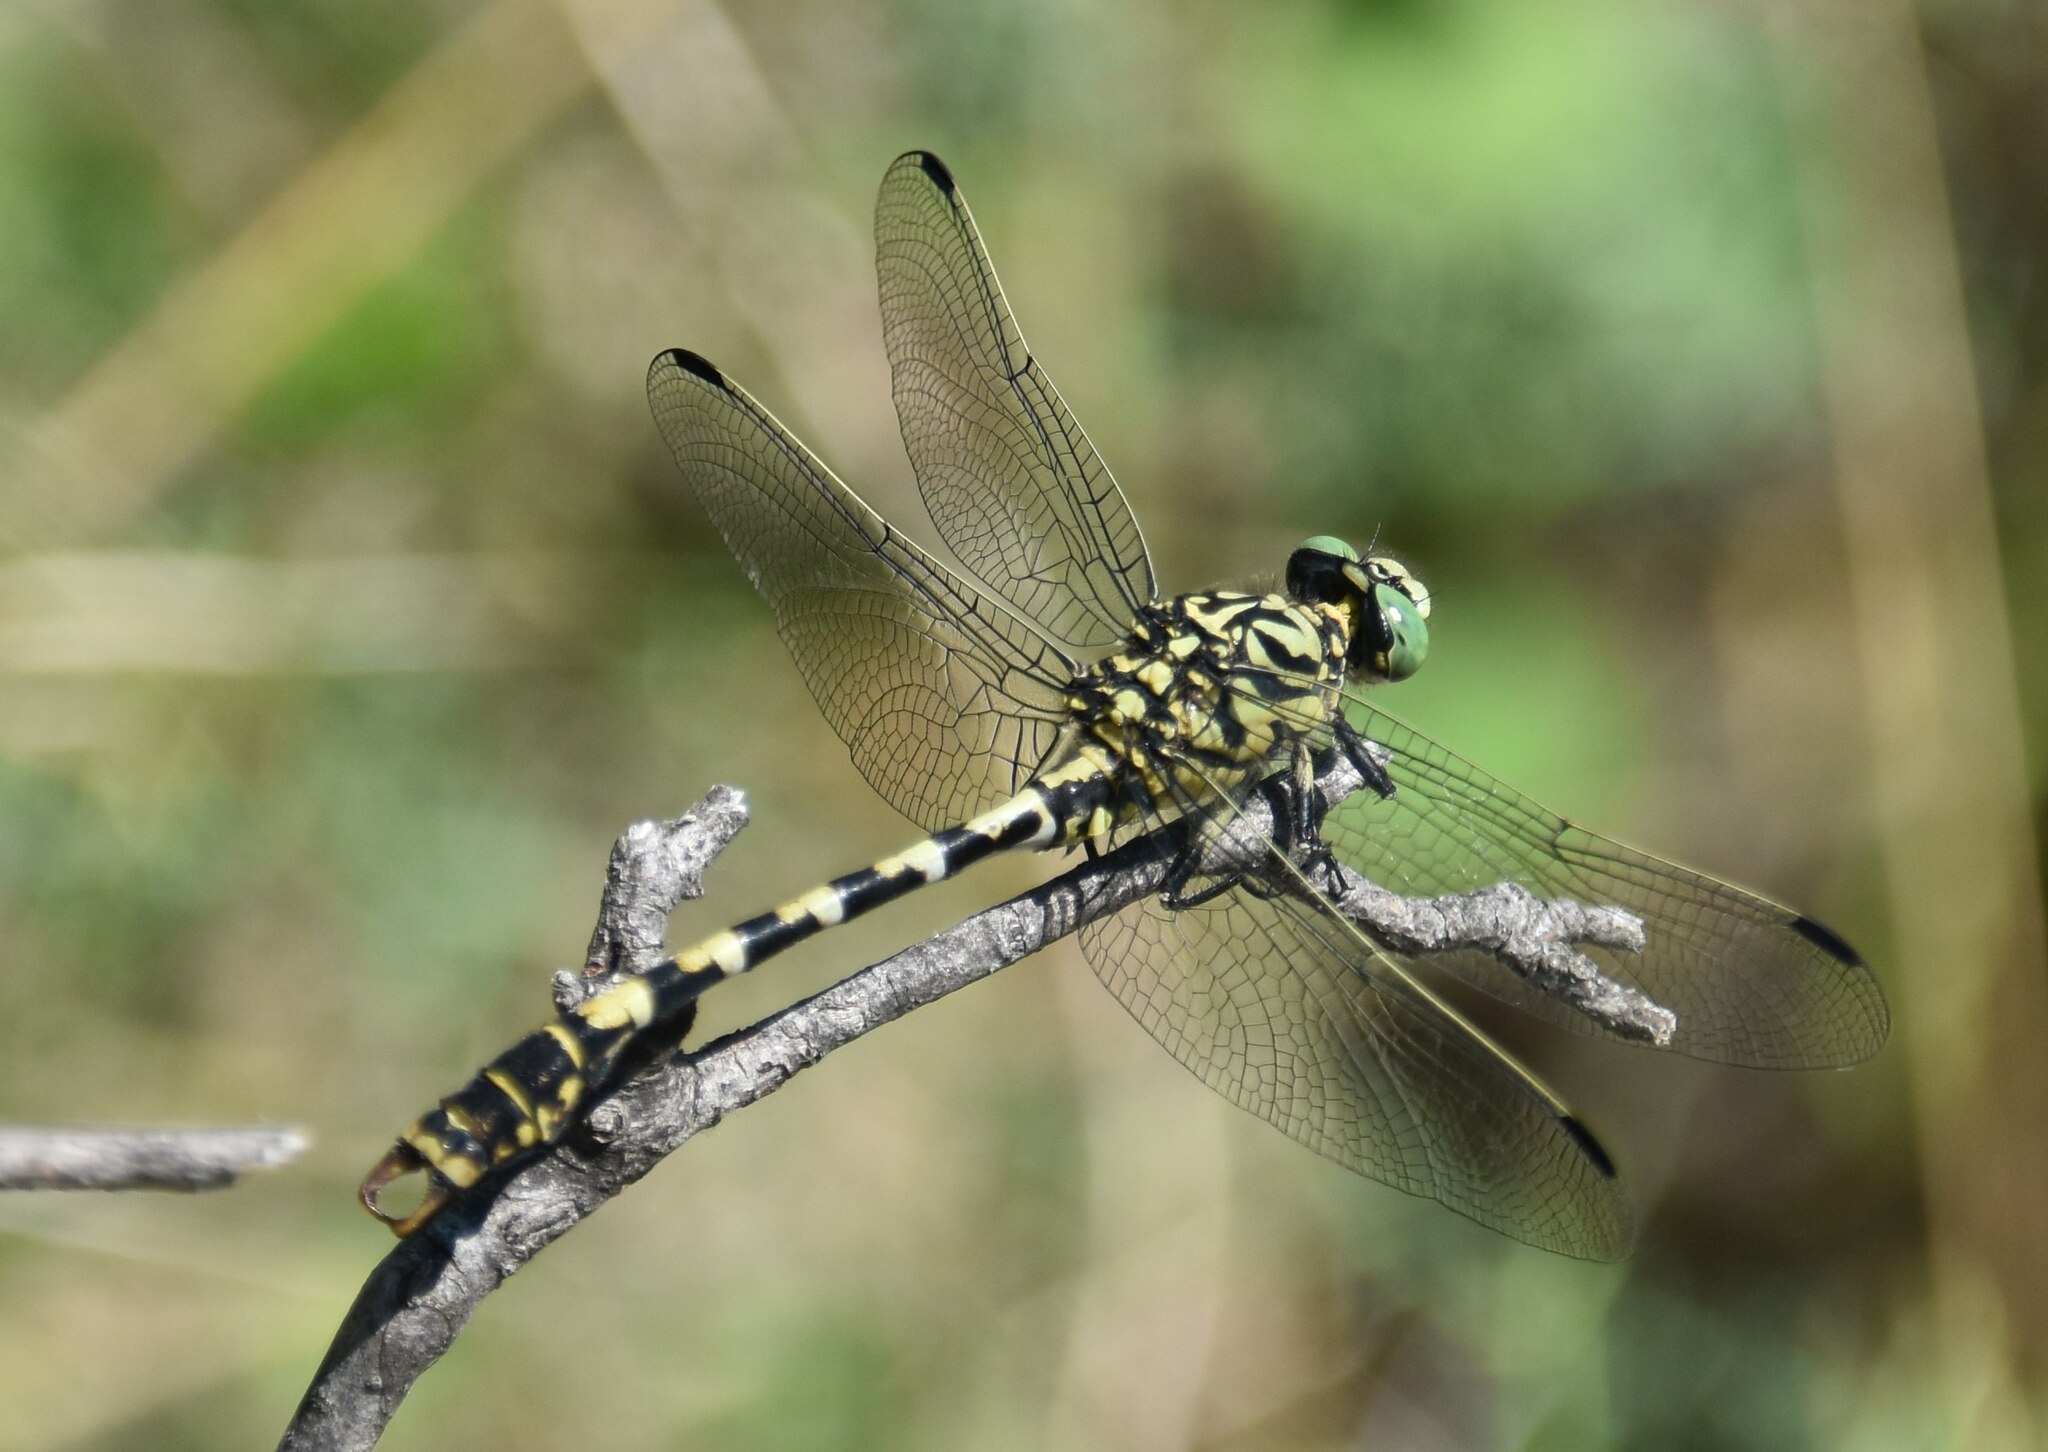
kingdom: Animalia
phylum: Arthropoda
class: Insecta
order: Odonata
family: Gomphidae
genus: Onychogomphus
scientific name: Onychogomphus forcipatus
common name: Small pincertail
